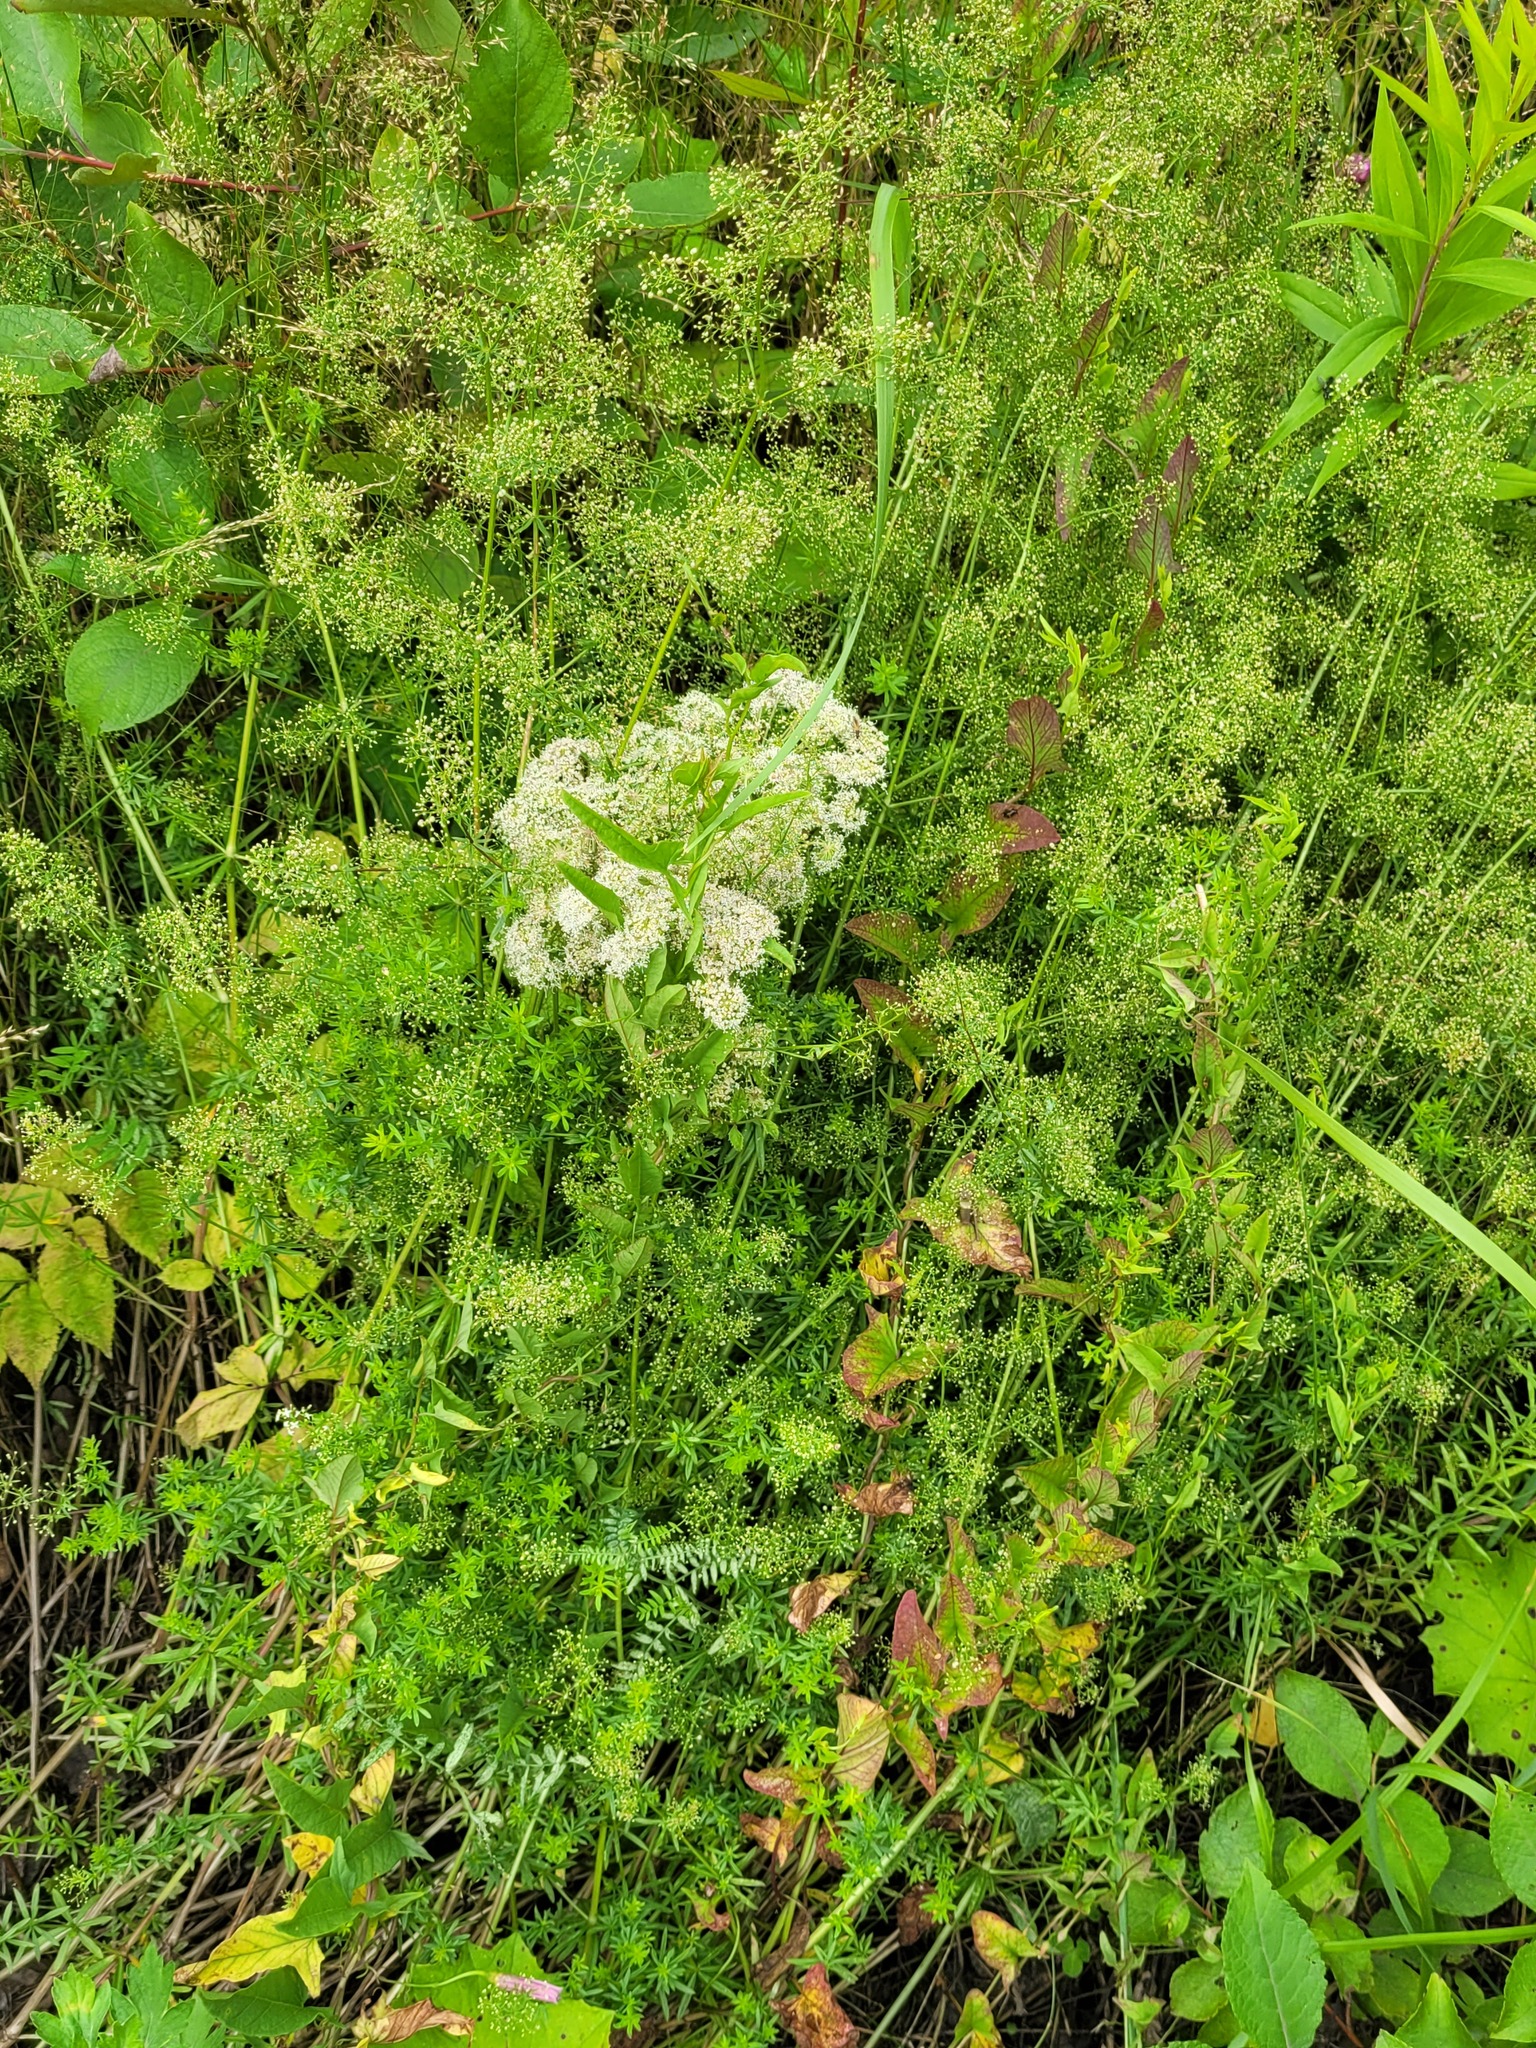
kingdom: Plantae
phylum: Tracheophyta
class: Magnoliopsida
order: Gentianales
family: Rubiaceae
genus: Galium
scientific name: Galium mollugo
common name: Hedge bedstraw
